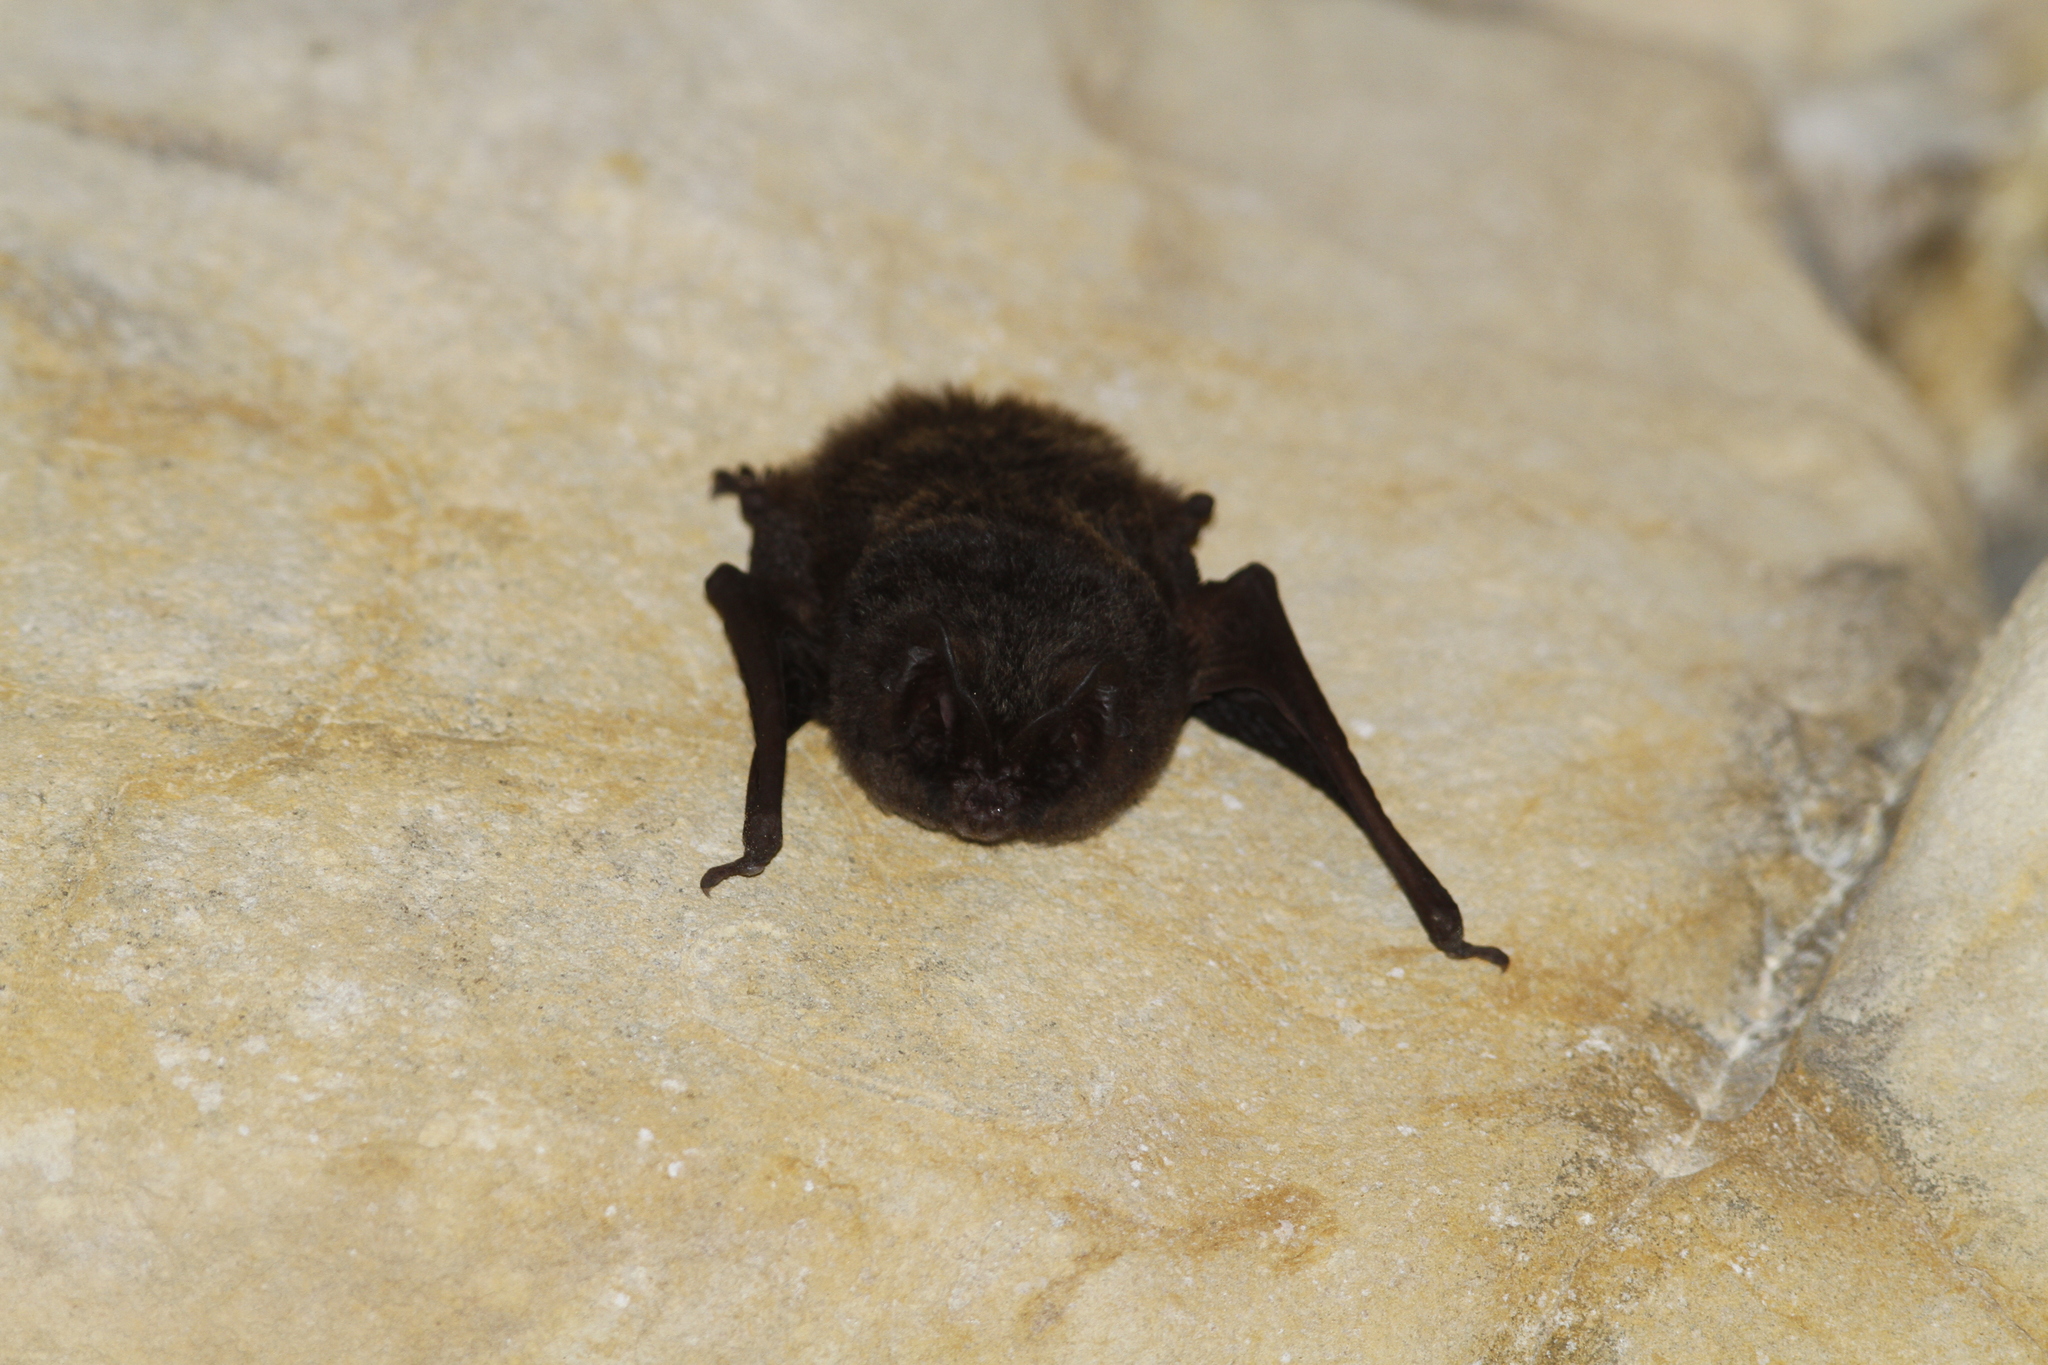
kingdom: Animalia
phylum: Chordata
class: Mammalia
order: Chiroptera
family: Vespertilionidae
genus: Barbastella
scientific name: Barbastella barbastellus
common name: Western barbastelle
